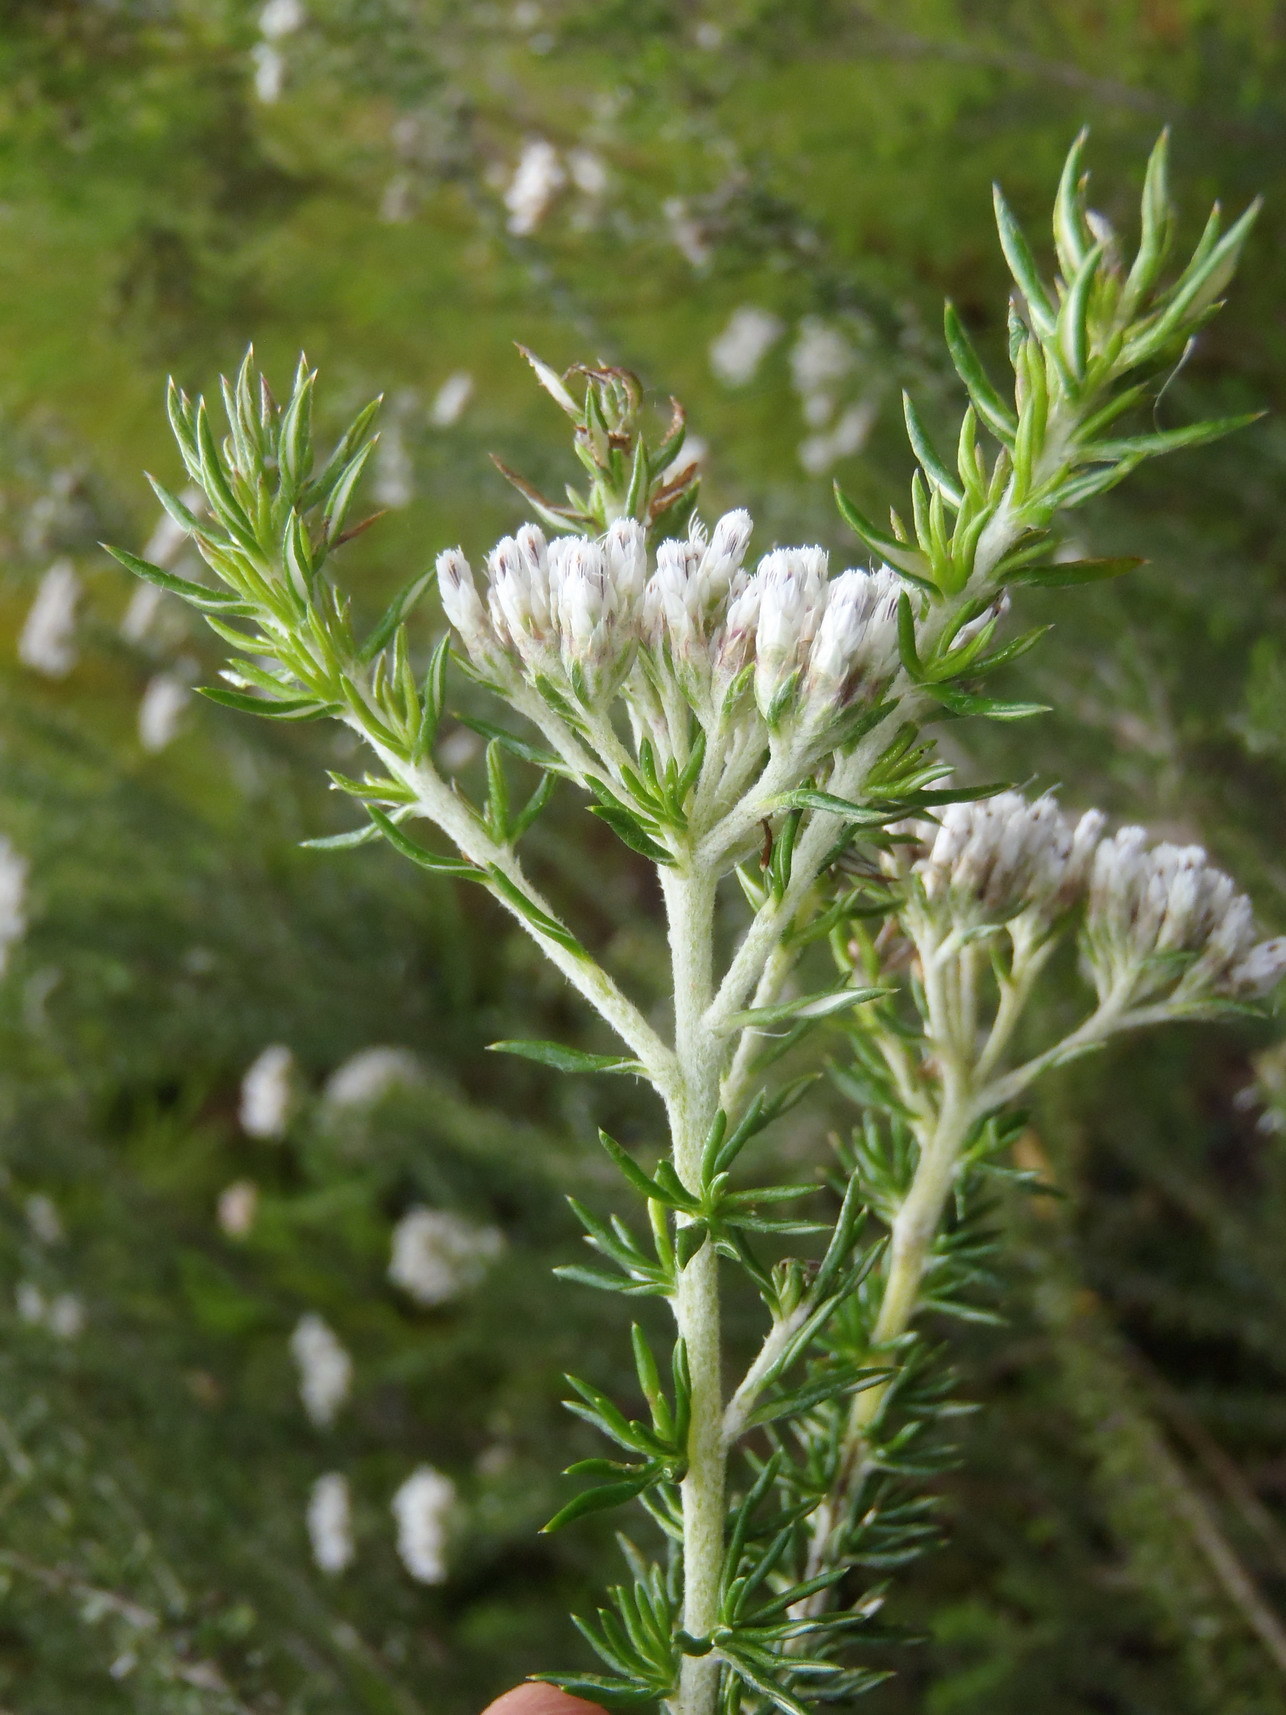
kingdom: Plantae
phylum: Tracheophyta
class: Magnoliopsida
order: Asterales
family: Asteraceae
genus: Metalasia
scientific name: Metalasia densa
